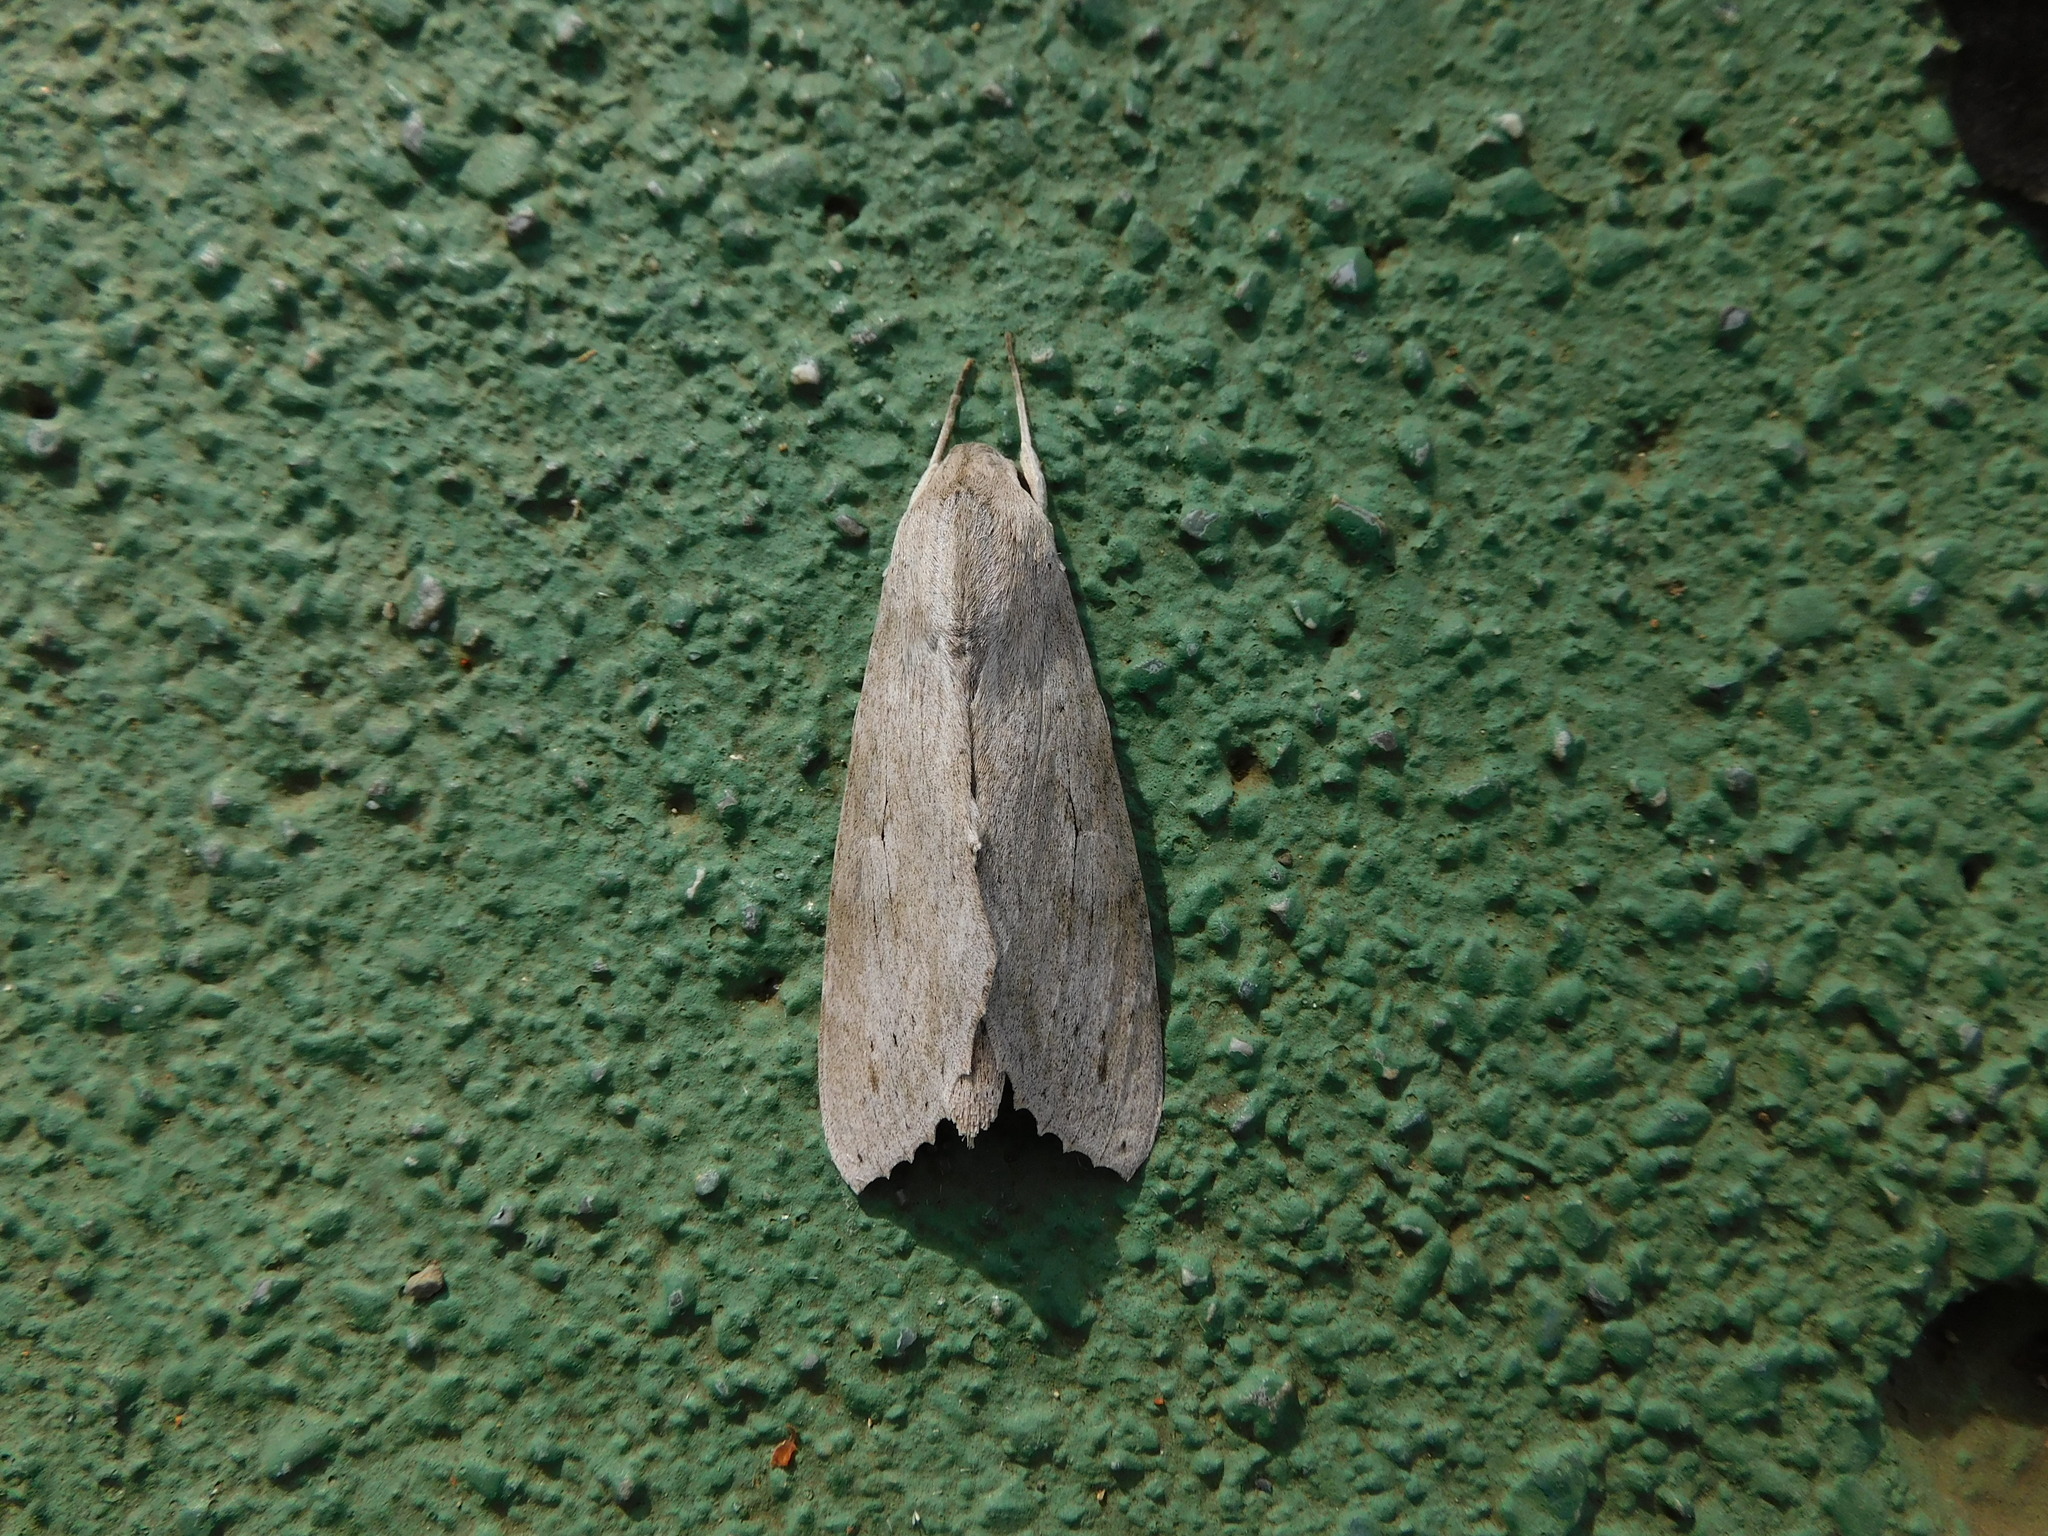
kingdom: Animalia
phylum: Arthropoda
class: Insecta
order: Lepidoptera
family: Sphingidae
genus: Erinnyis
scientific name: Erinnyis ello
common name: Ello sphinx
